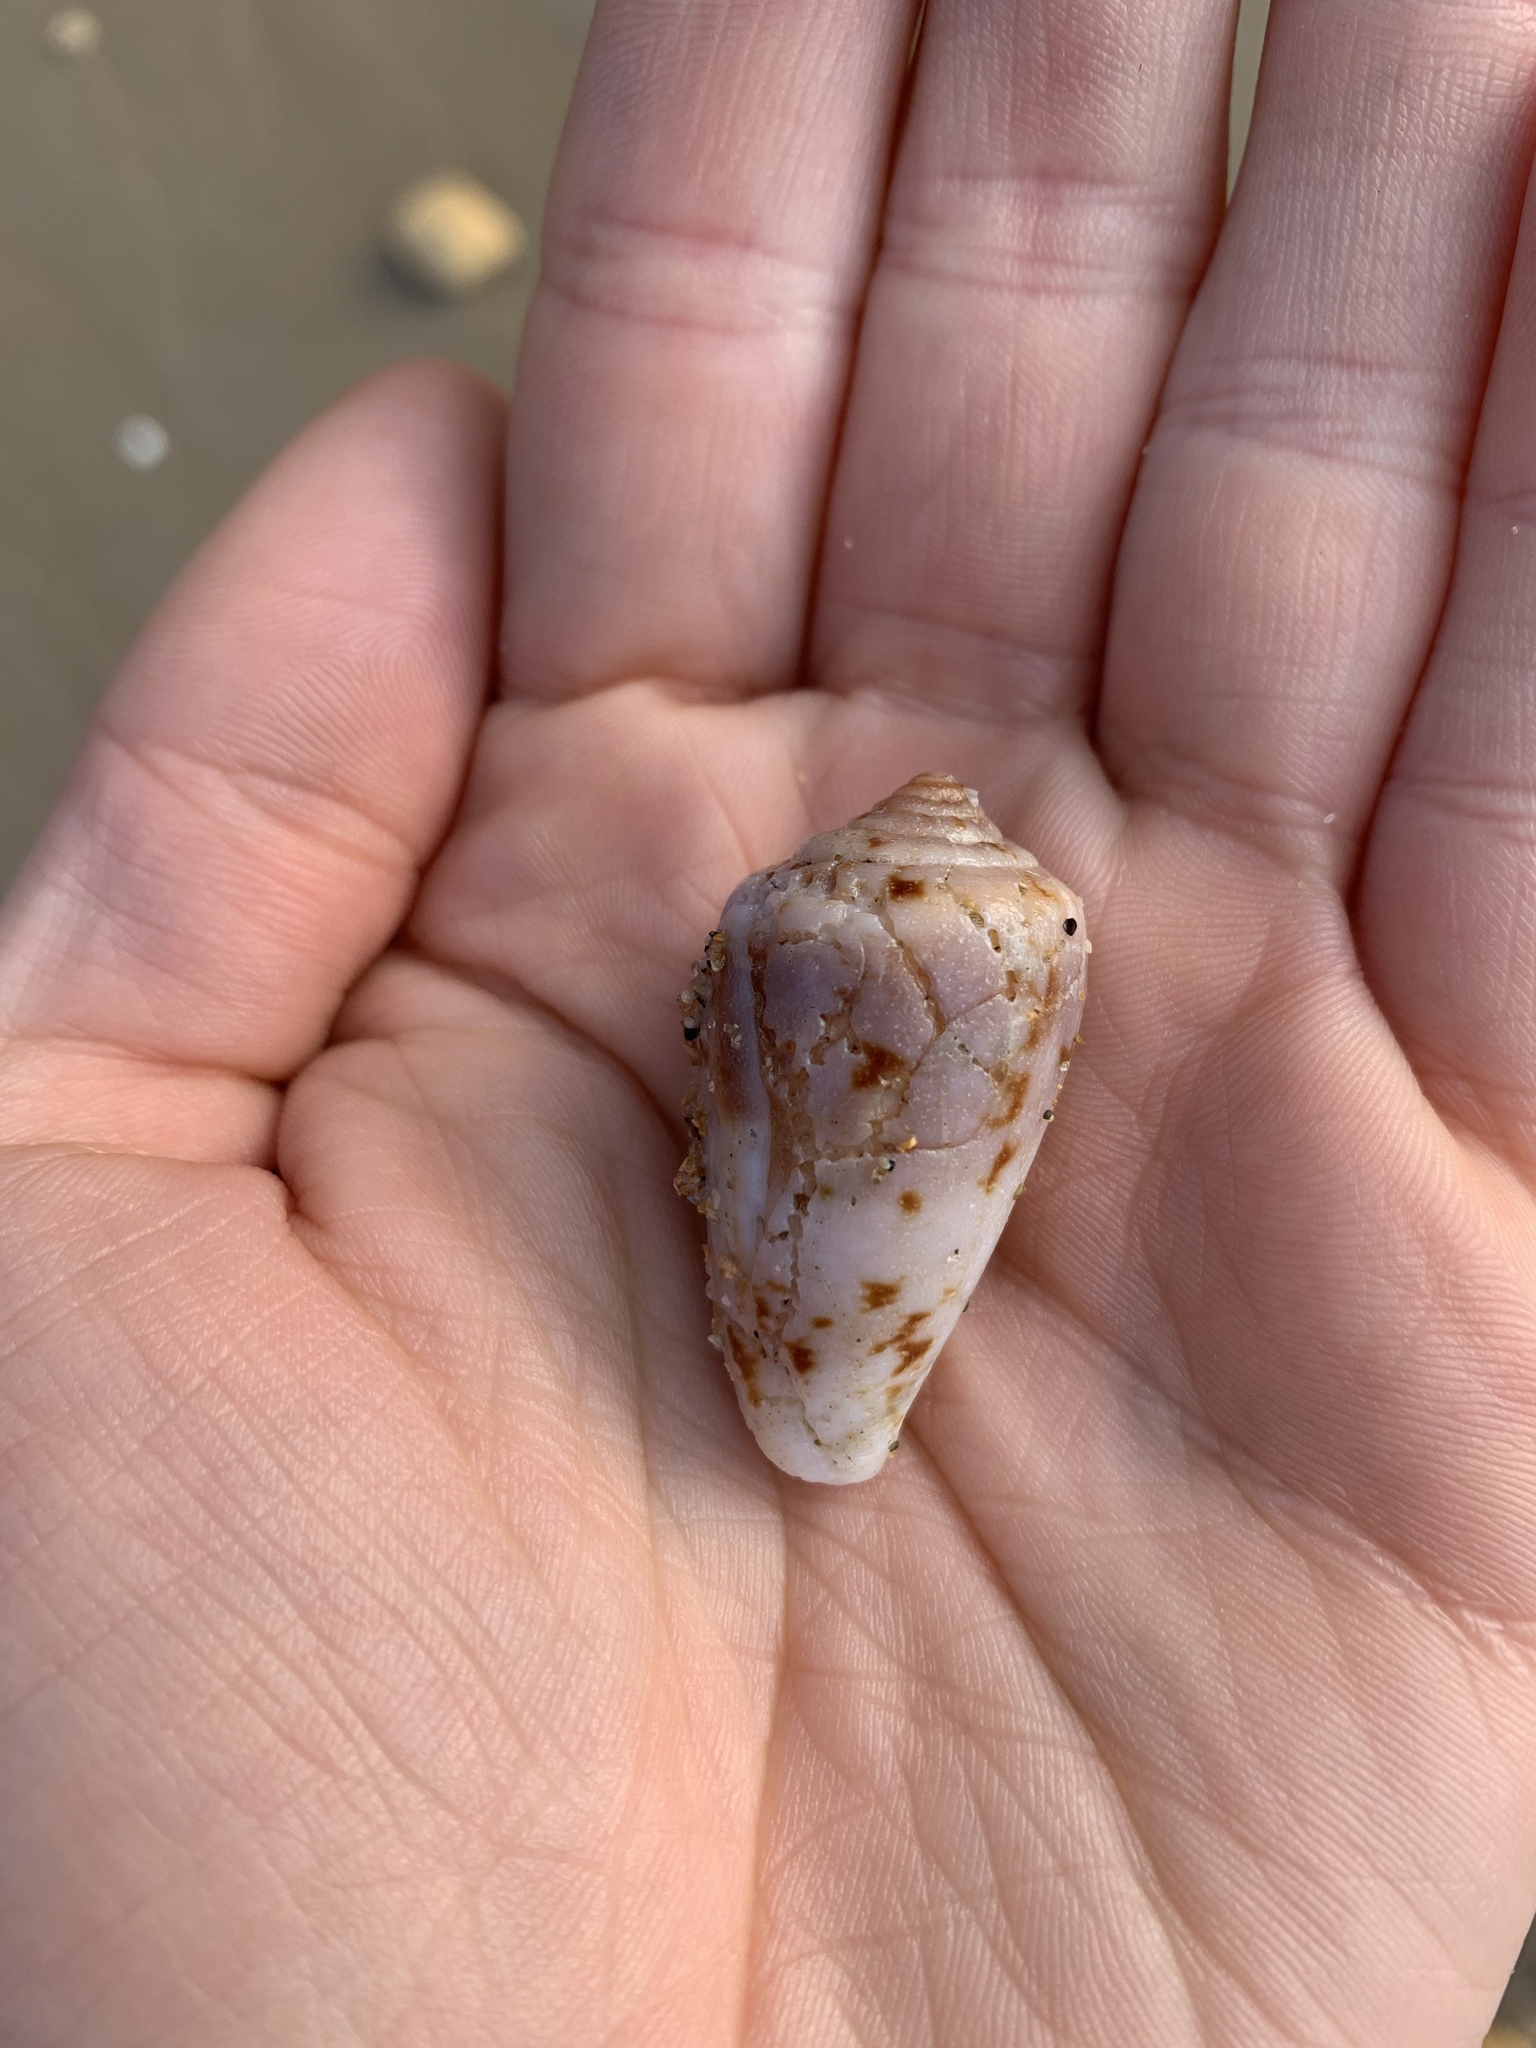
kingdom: Animalia
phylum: Mollusca
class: Gastropoda
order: Neogastropoda
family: Conidae
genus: Conus
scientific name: Conus anemone
